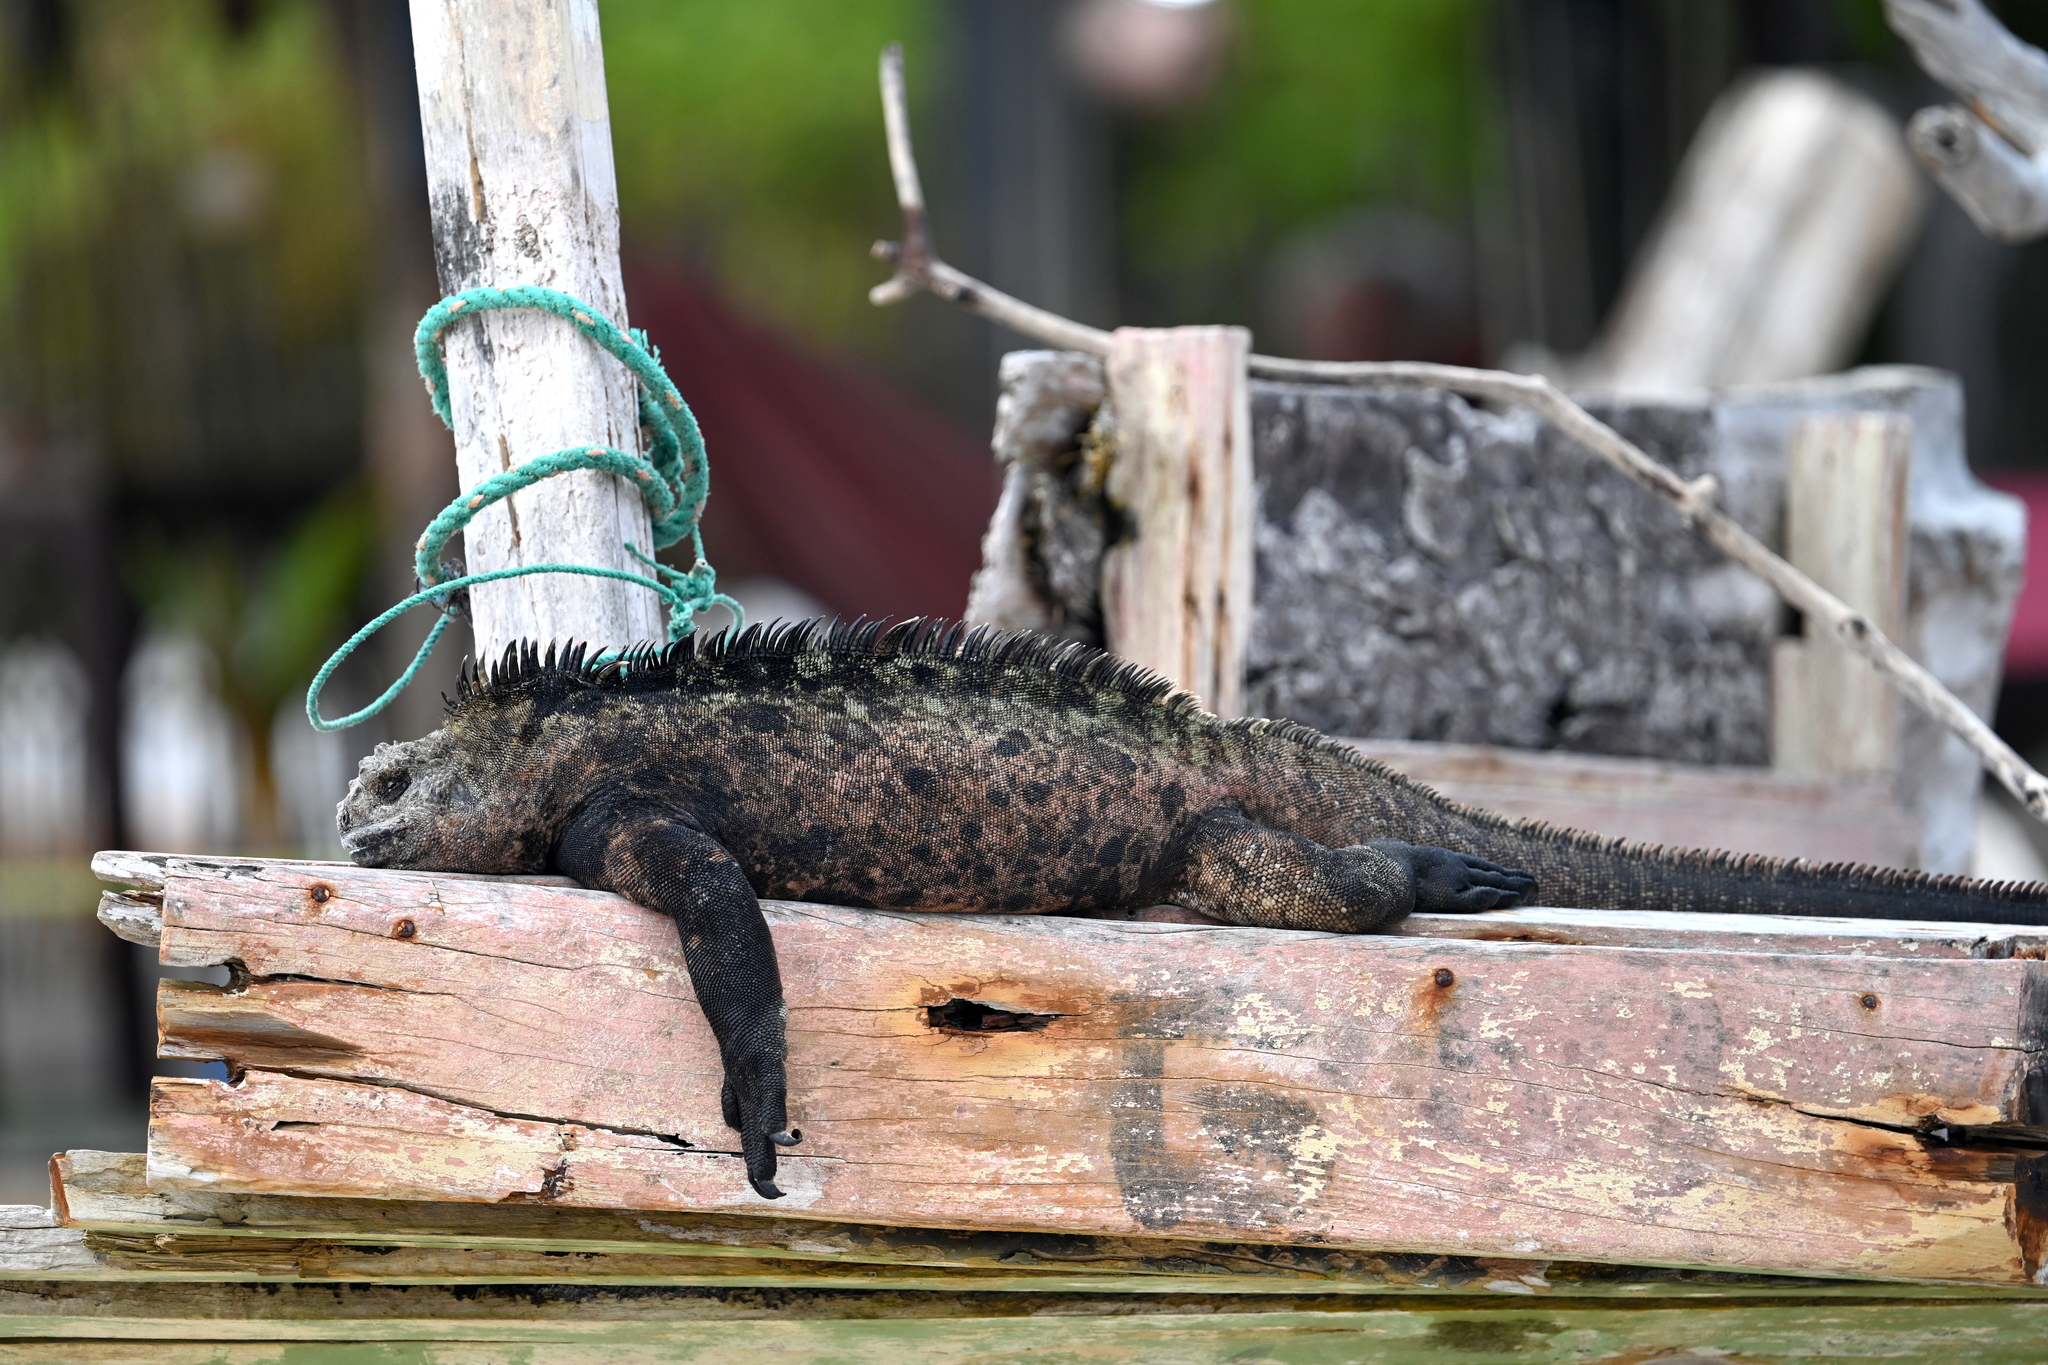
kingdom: Animalia
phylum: Chordata
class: Squamata
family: Iguanidae
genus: Amblyrhynchus
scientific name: Amblyrhynchus cristatus
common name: Marine iguana
